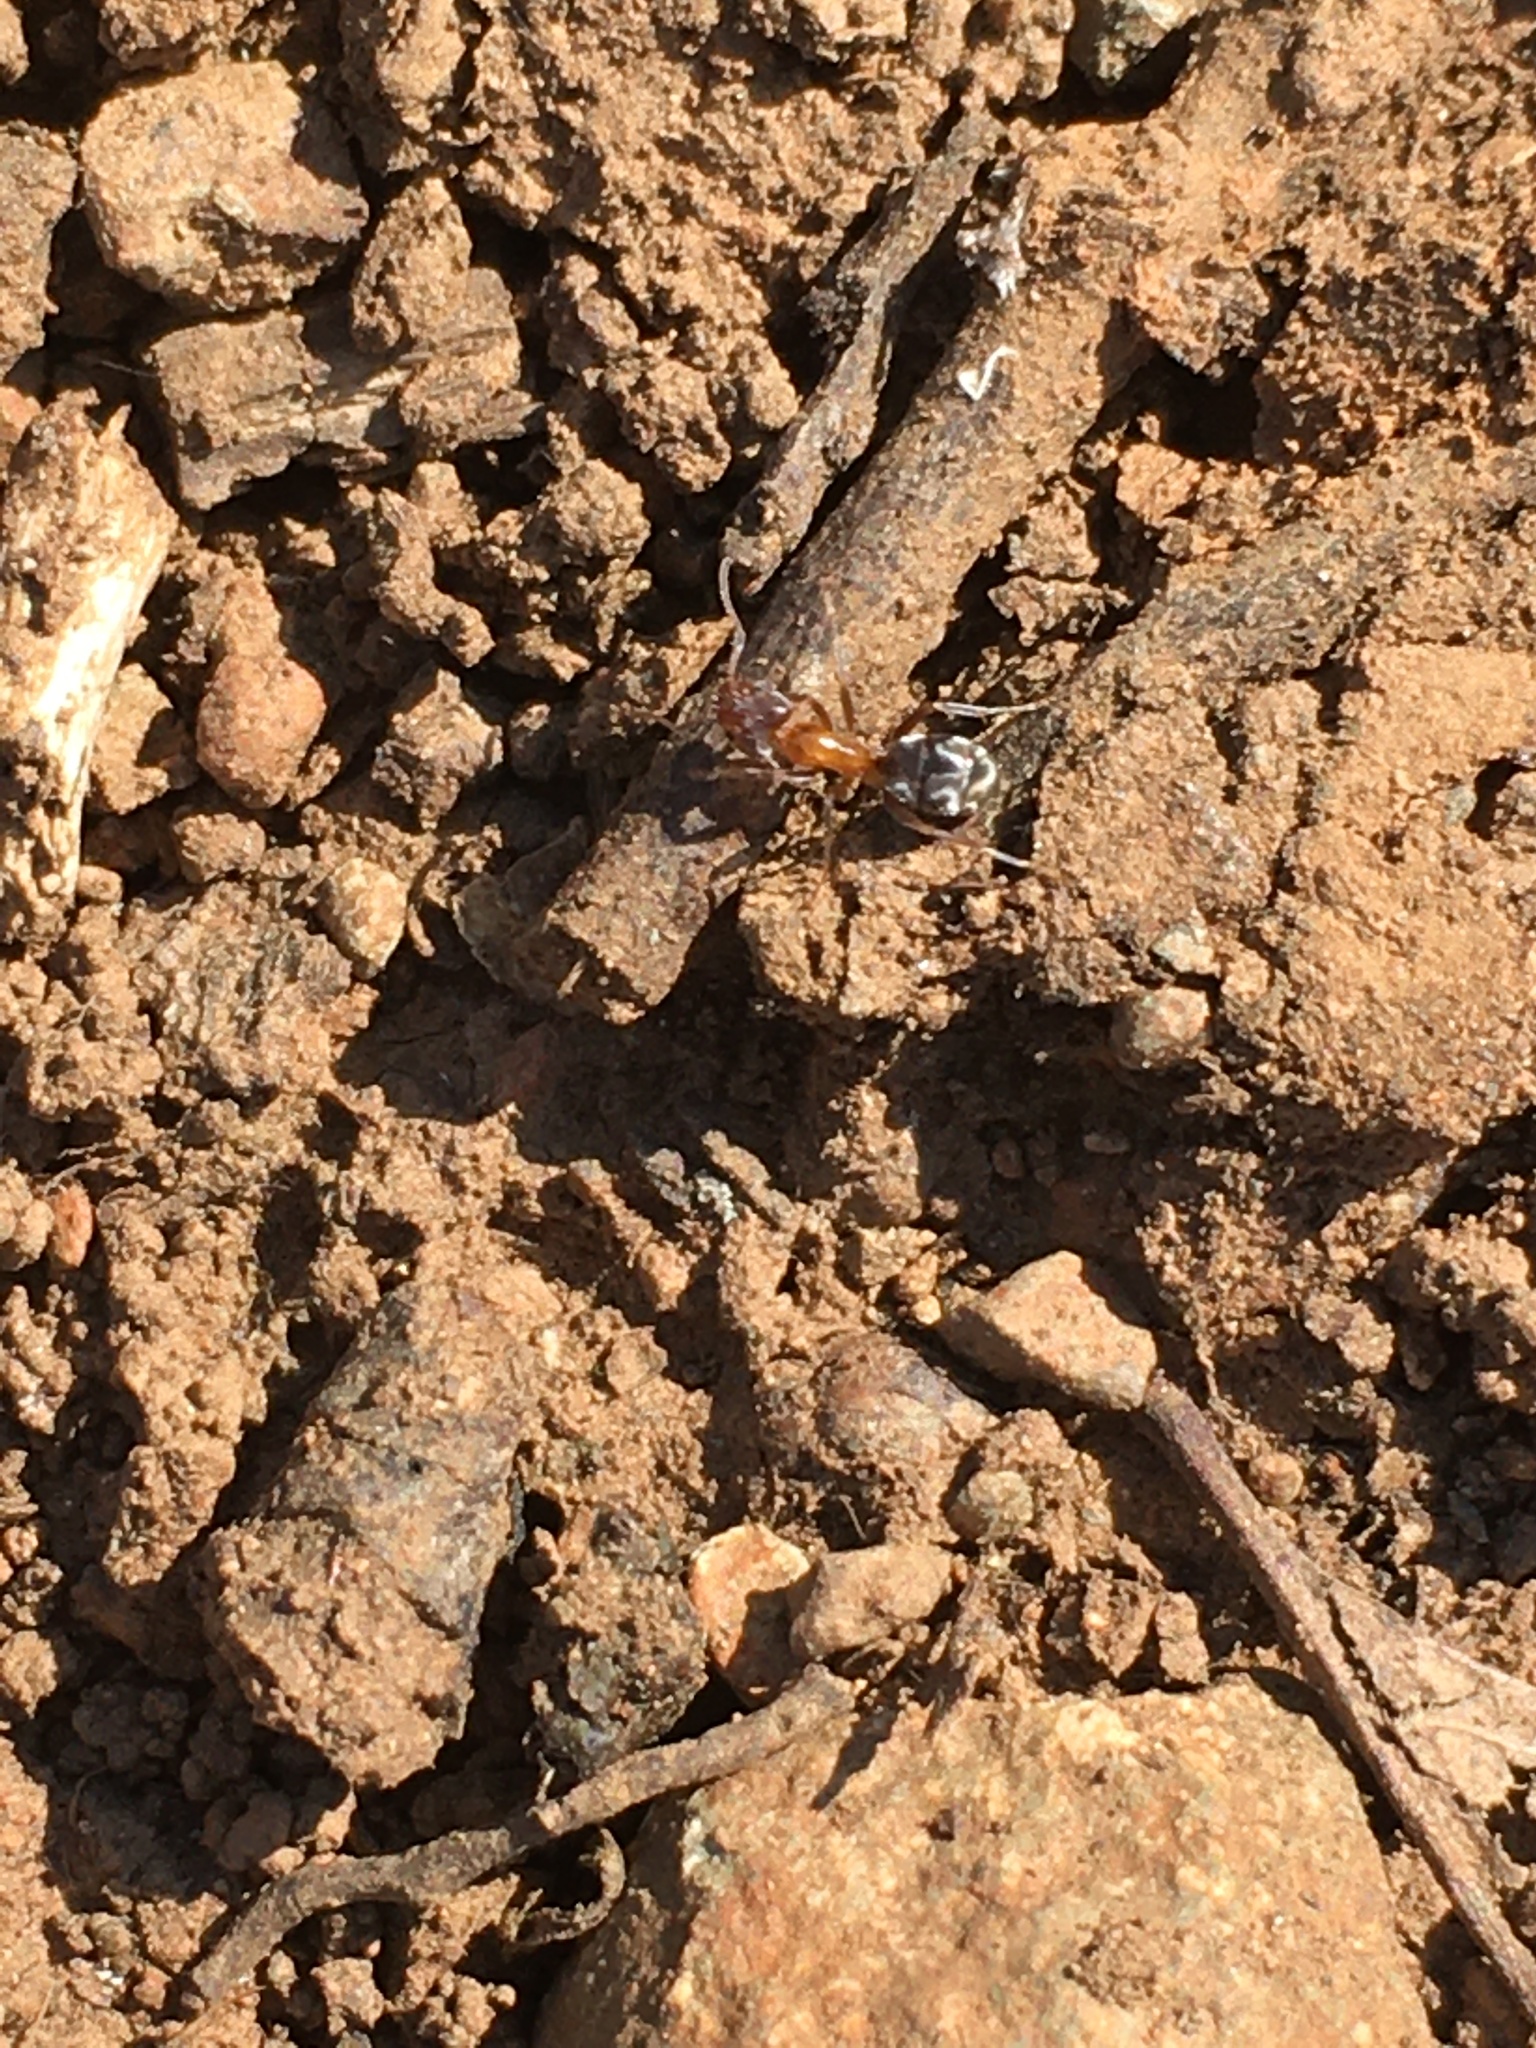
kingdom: Animalia
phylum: Arthropoda
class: Insecta
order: Hymenoptera
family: Formicidae
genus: Liometopum
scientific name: Liometopum occidentale
